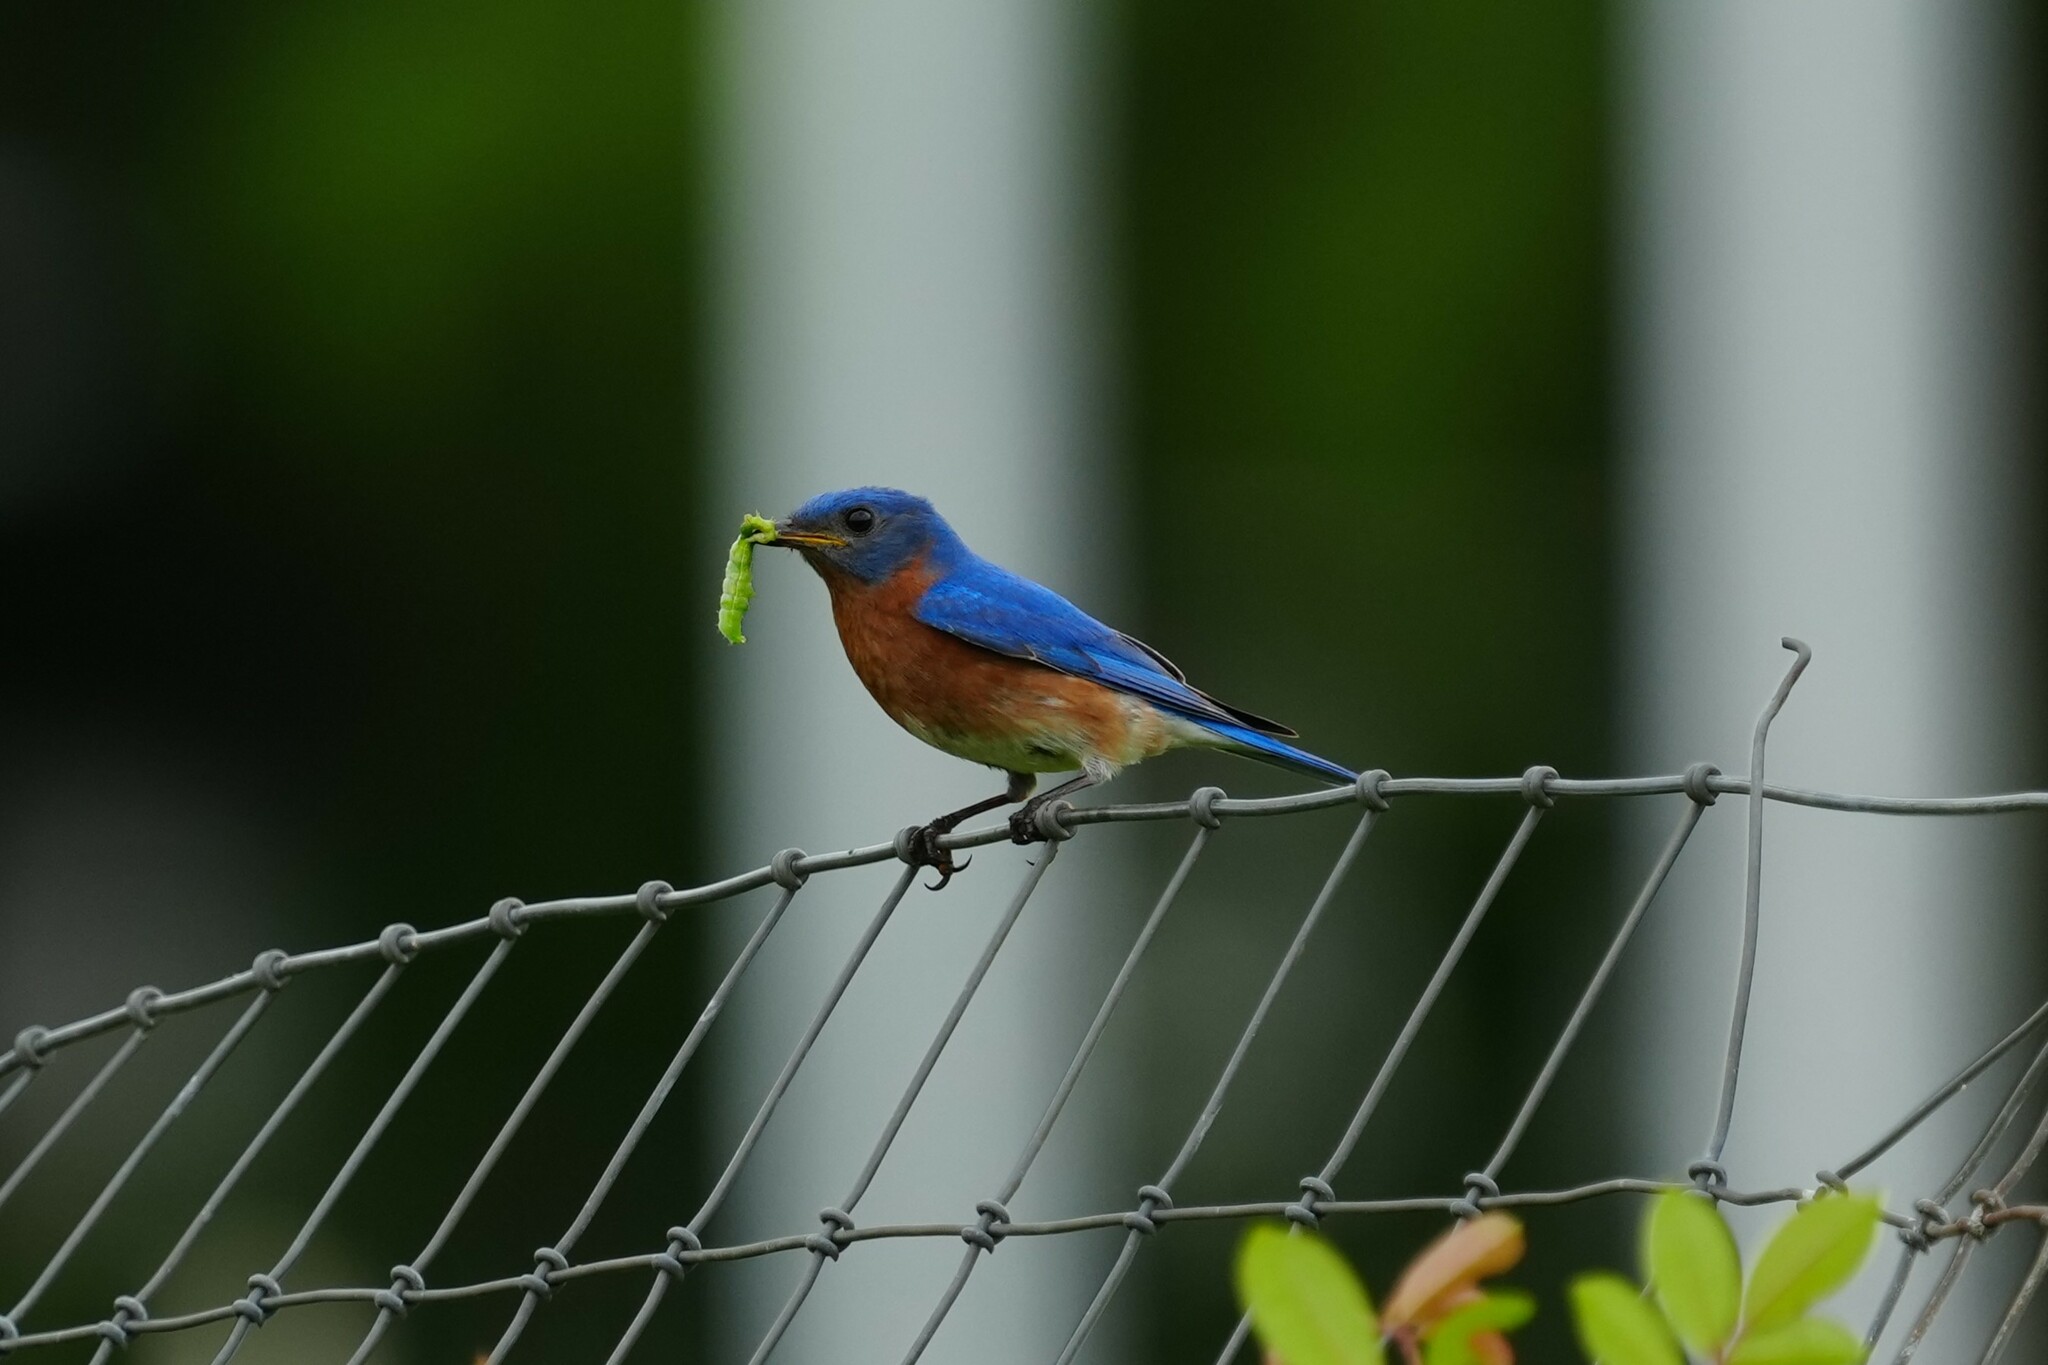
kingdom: Animalia
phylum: Chordata
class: Aves
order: Passeriformes
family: Turdidae
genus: Sialia
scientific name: Sialia sialis
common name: Eastern bluebird
